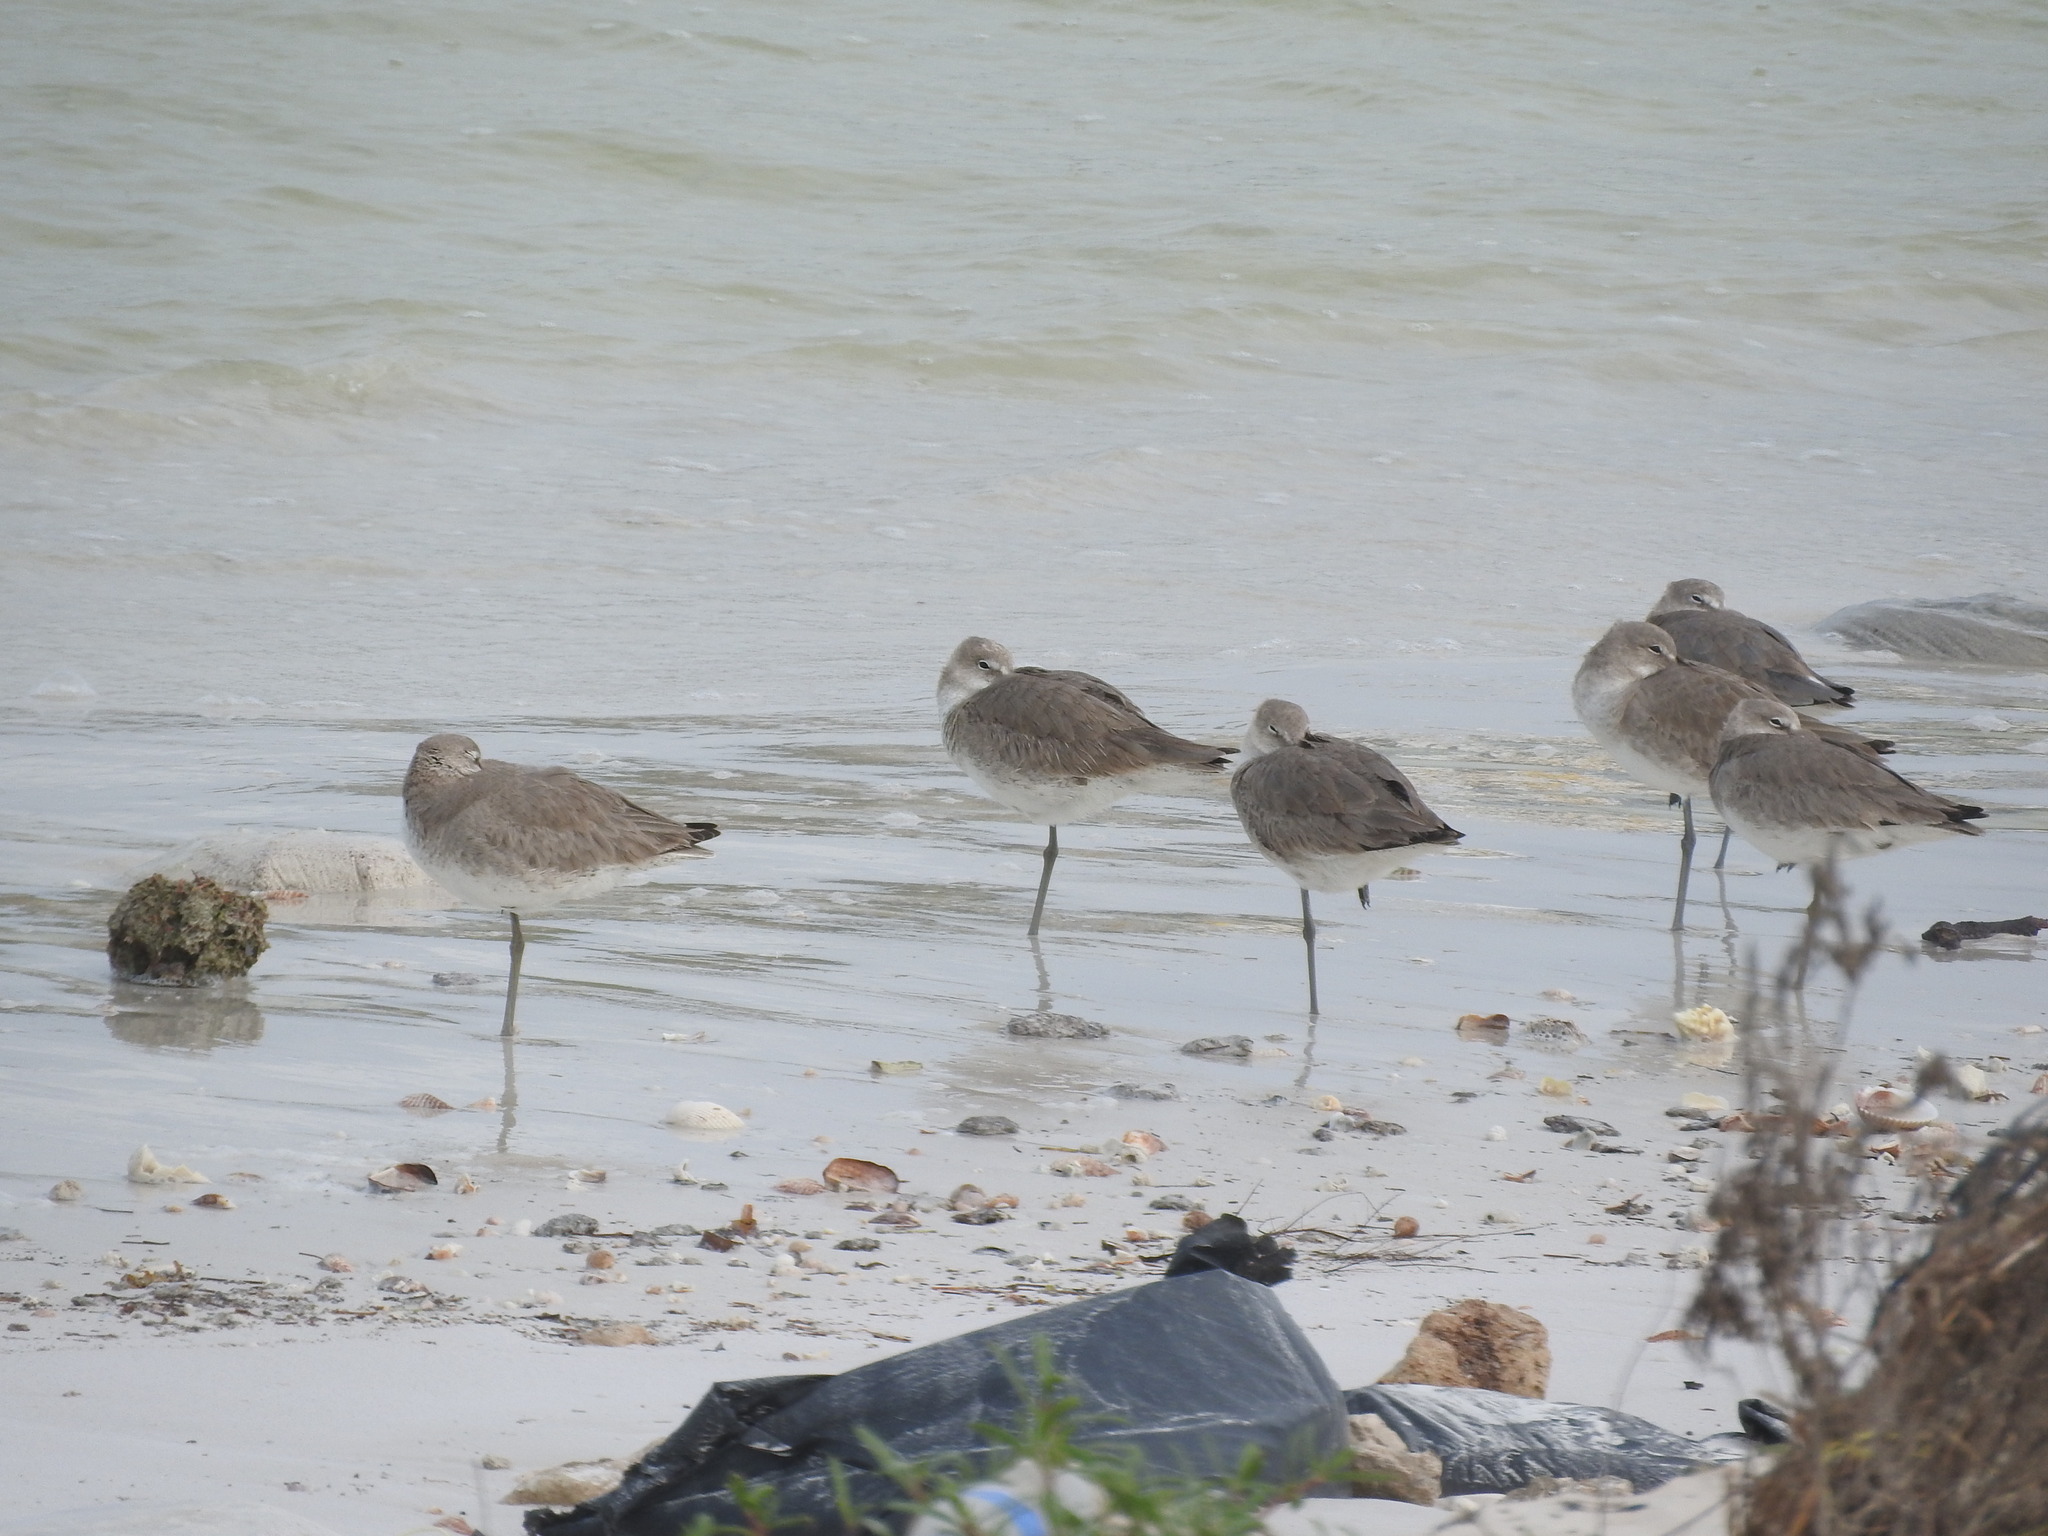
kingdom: Animalia
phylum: Chordata
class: Aves
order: Charadriiformes
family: Scolopacidae
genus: Tringa
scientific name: Tringa semipalmata
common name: Willet
